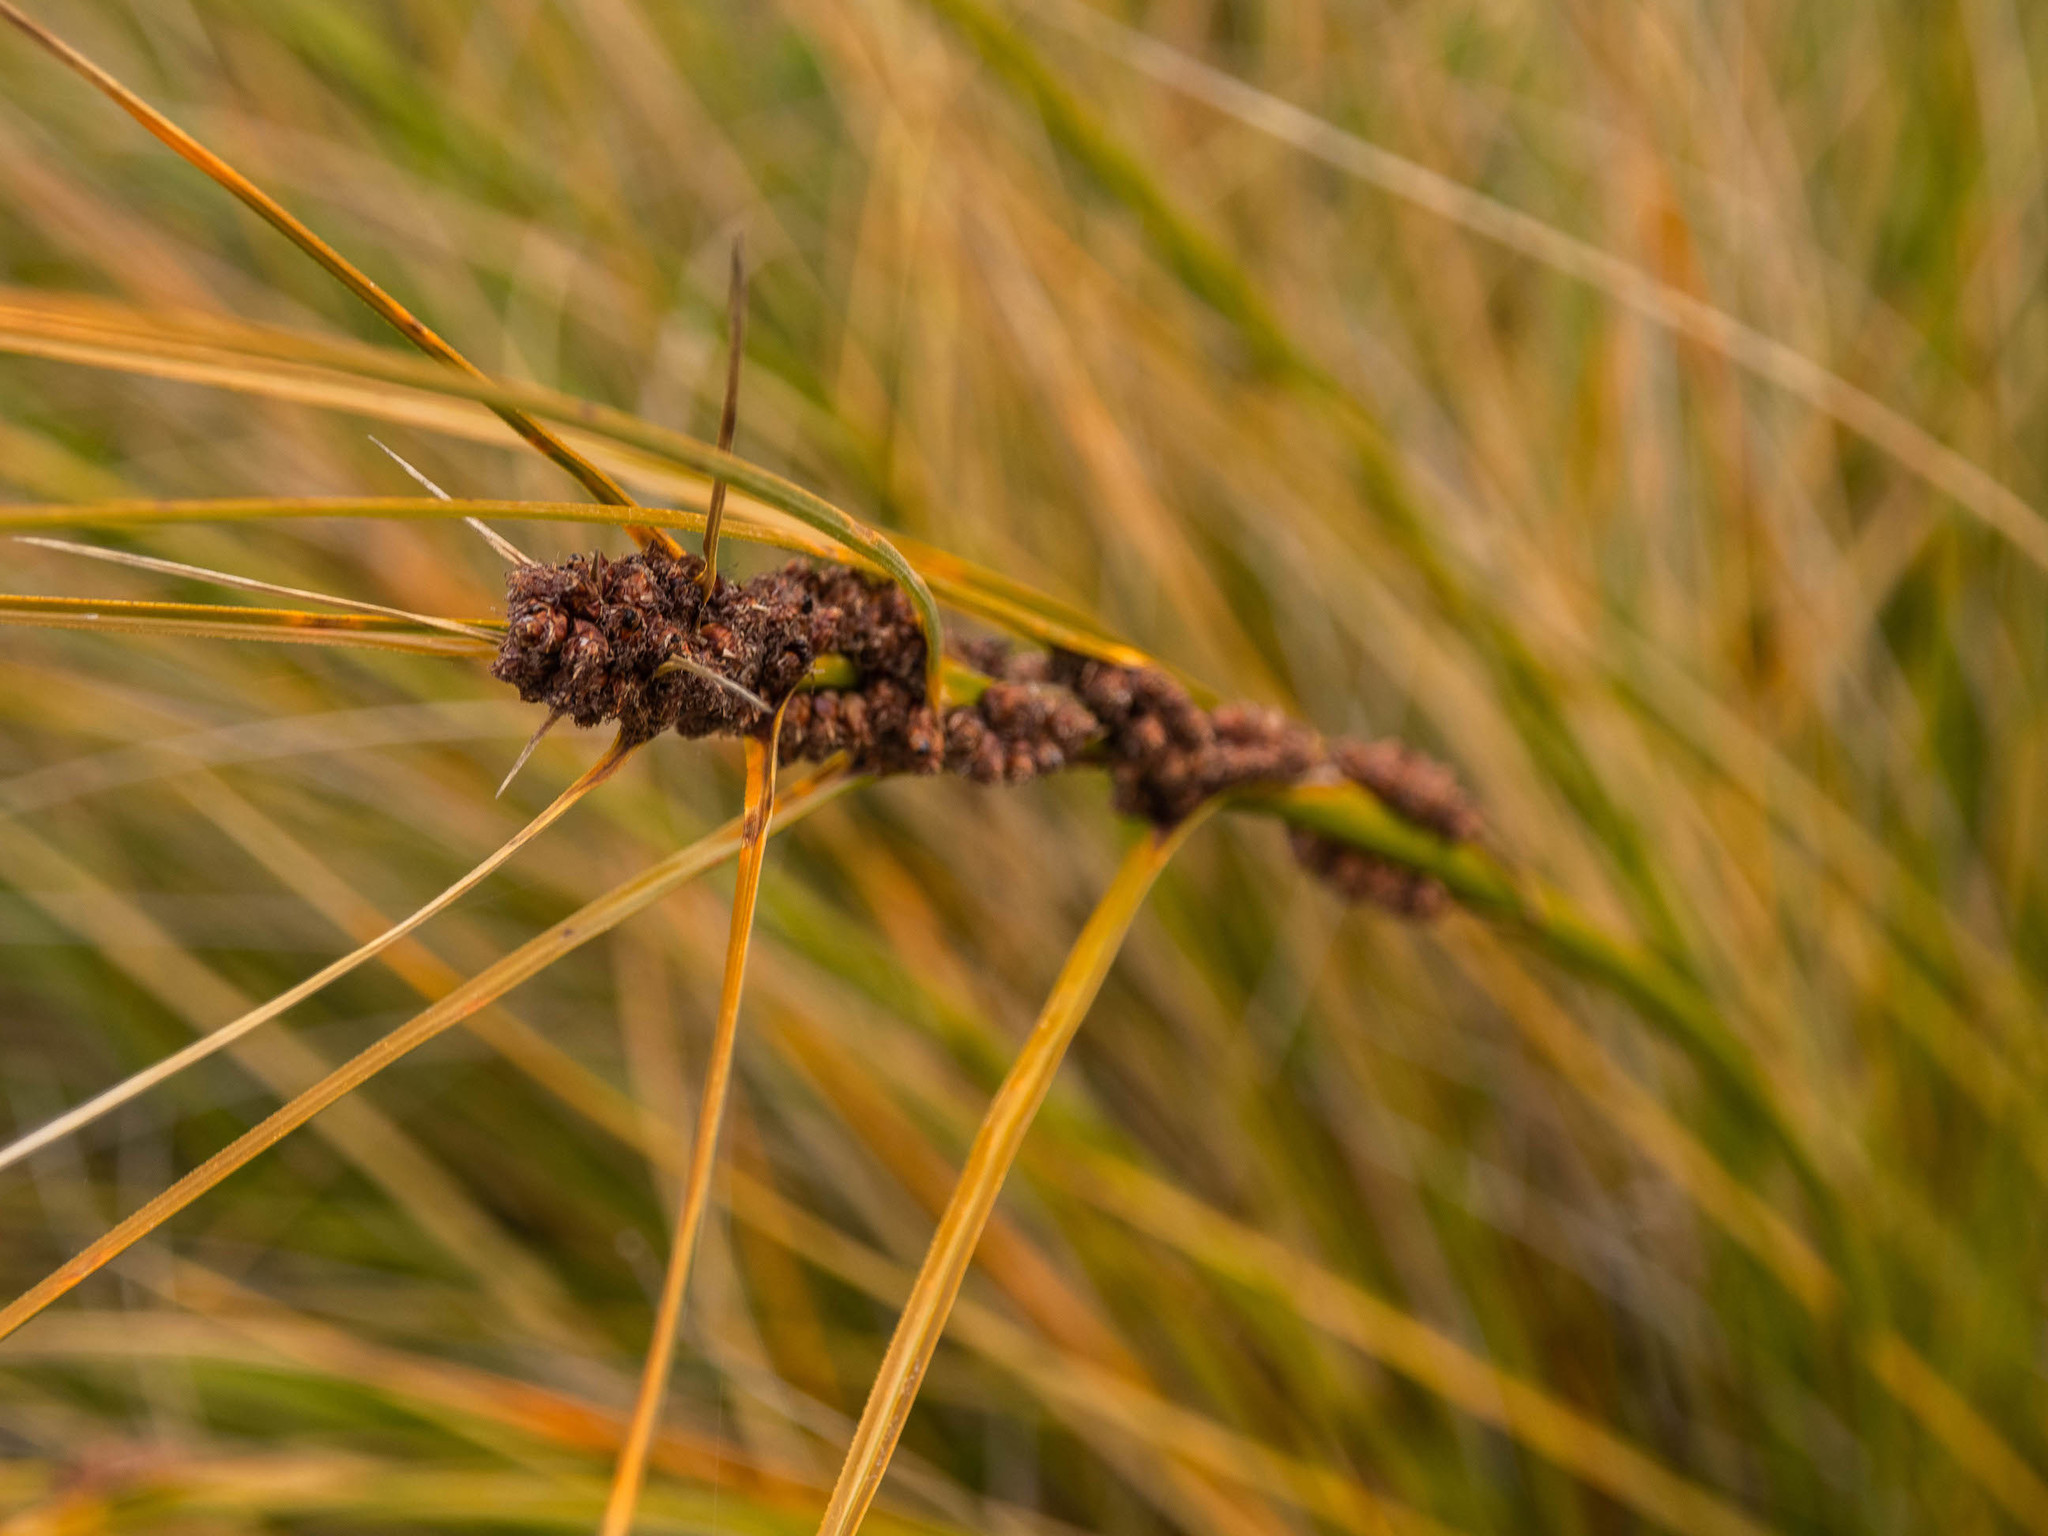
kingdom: Plantae
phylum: Tracheophyta
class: Liliopsida
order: Poales
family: Cyperaceae
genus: Ficinia
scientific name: Ficinia spiralis
